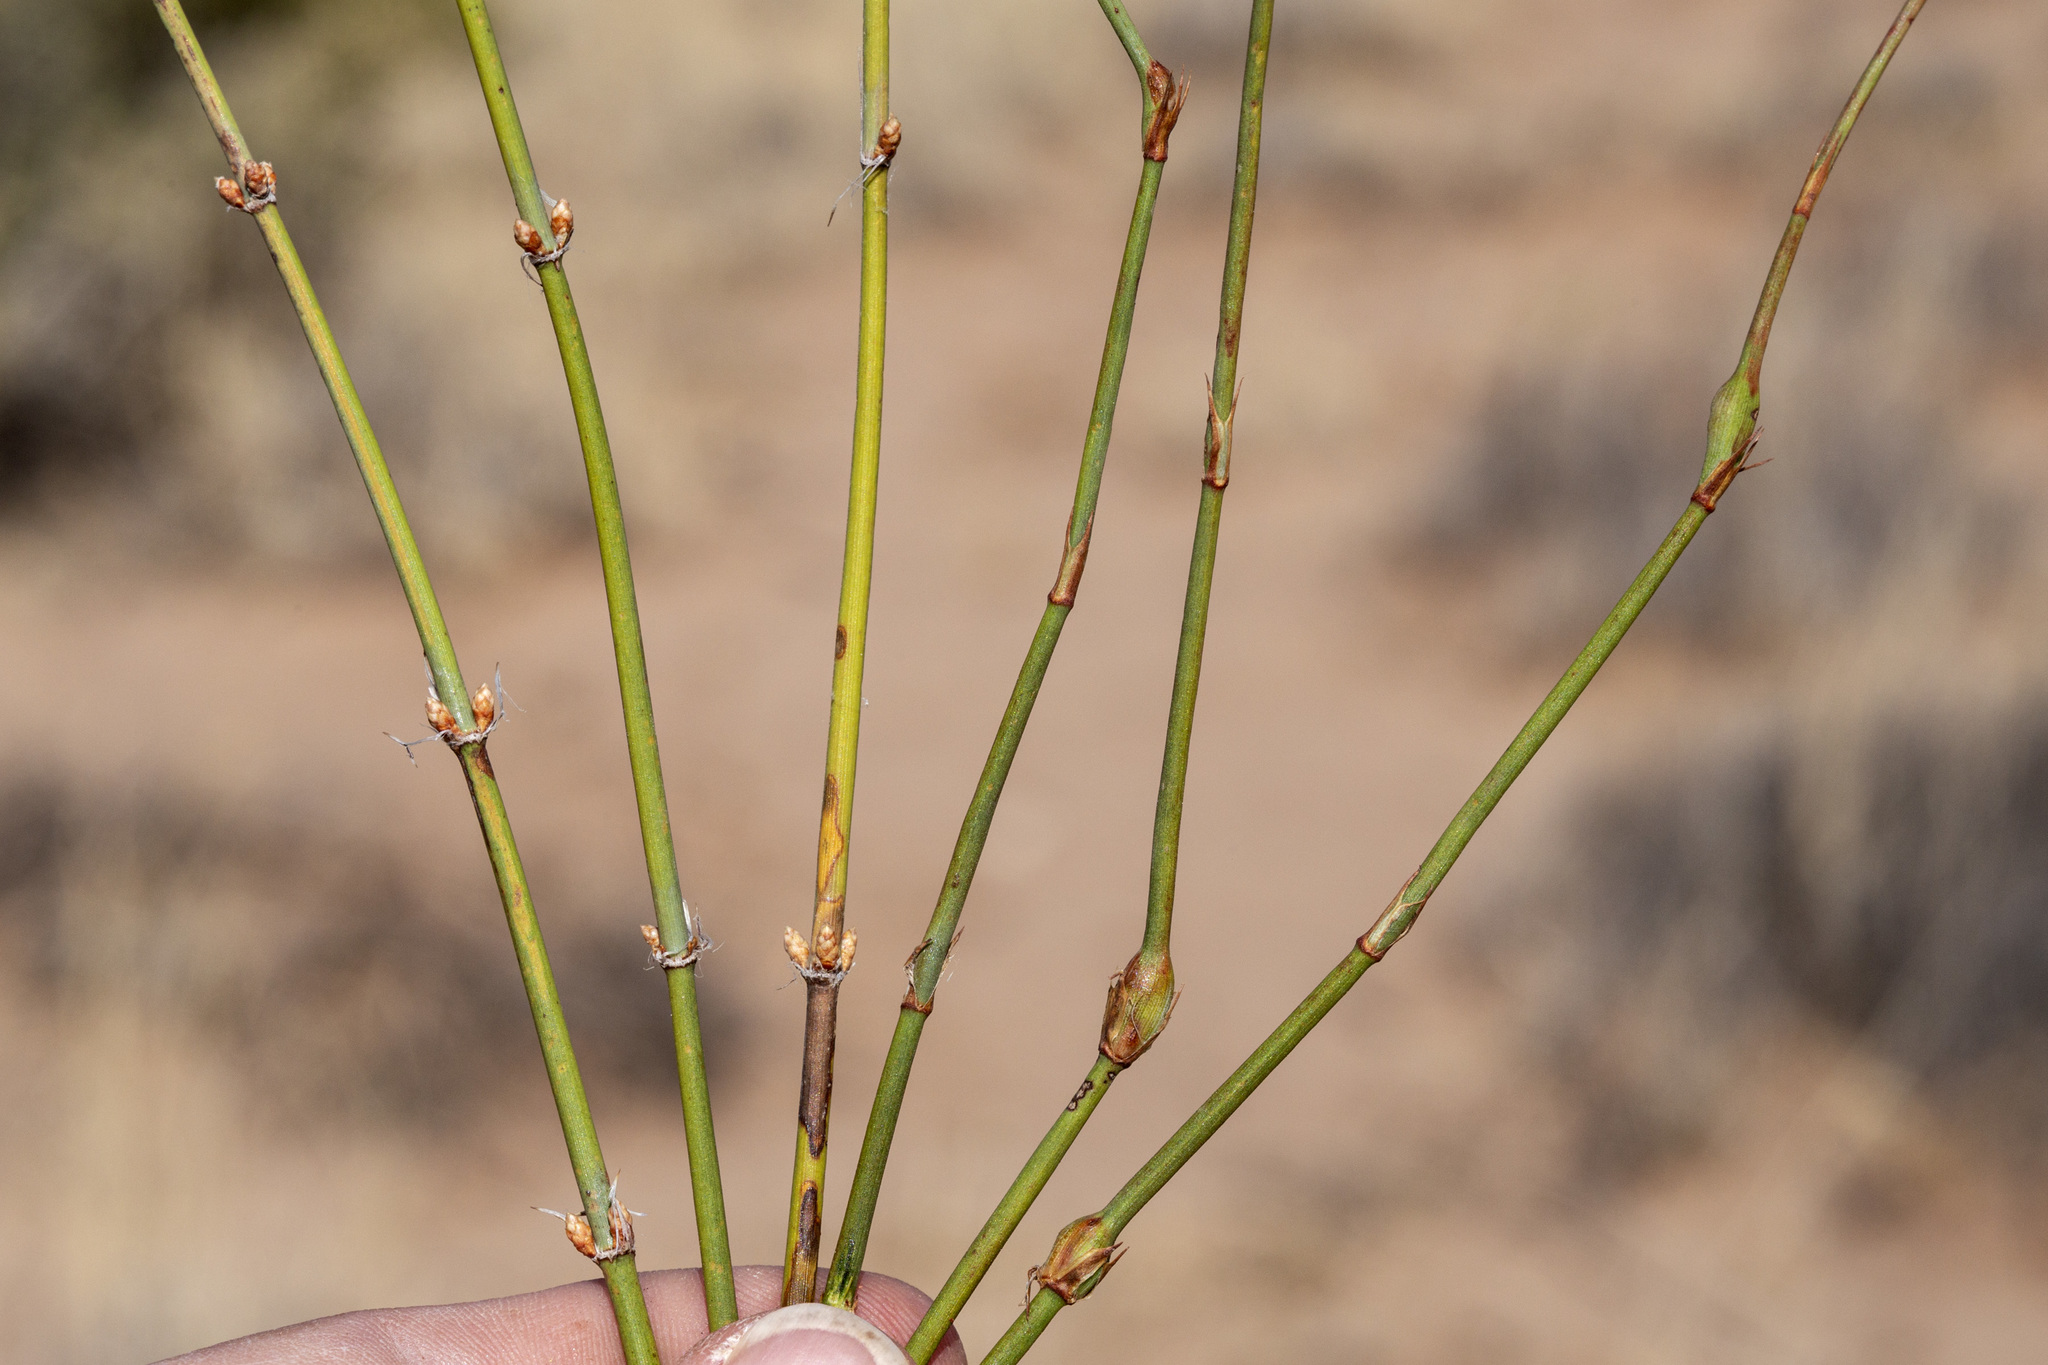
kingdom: Plantae
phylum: Tracheophyta
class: Gnetopsida
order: Ephedrales
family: Ephedraceae
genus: Ephedra
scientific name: Ephedra trifurca
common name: Mexican-tea
